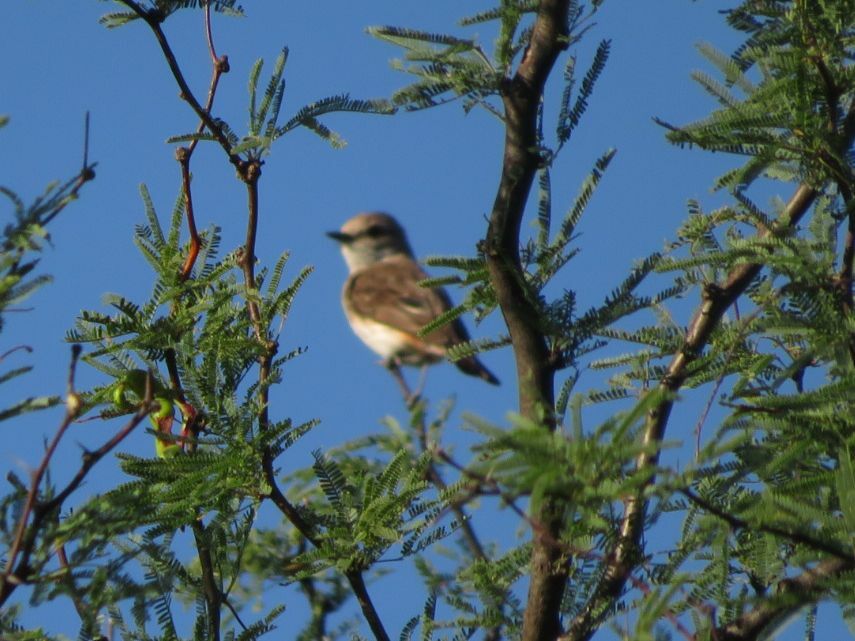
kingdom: Animalia
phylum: Chordata
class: Aves
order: Passeriformes
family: Tyrannidae
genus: Pyrocephalus
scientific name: Pyrocephalus rubinus
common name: Vermilion flycatcher
